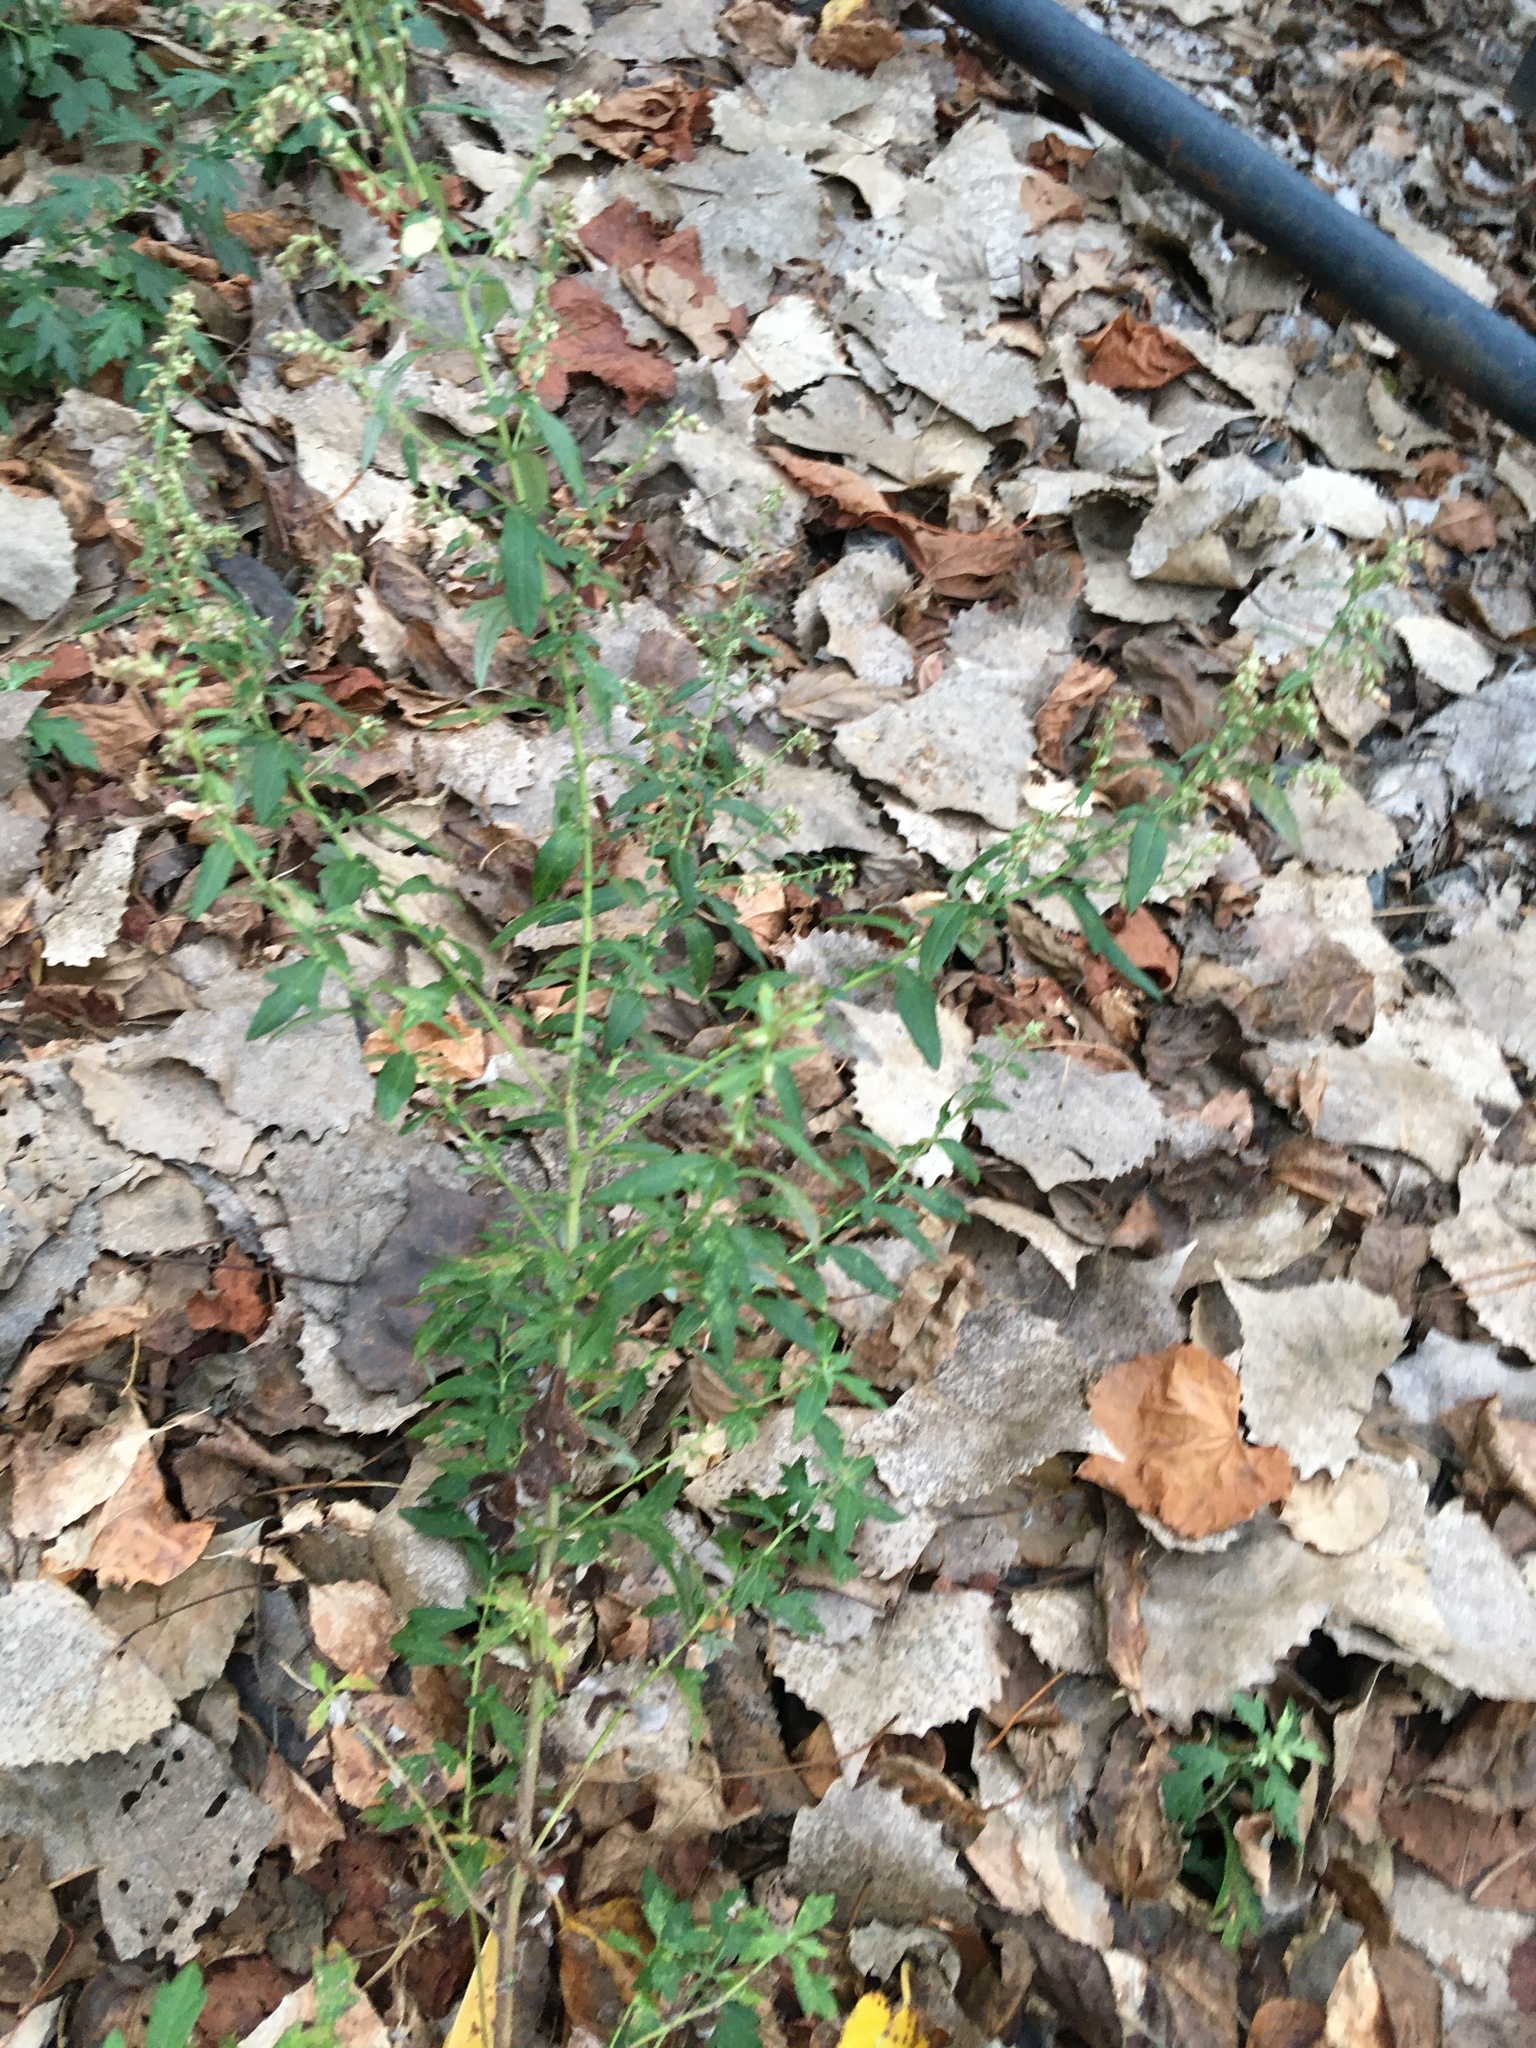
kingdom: Plantae
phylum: Tracheophyta
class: Magnoliopsida
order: Asterales
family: Asteraceae
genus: Artemisia
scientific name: Artemisia vulgaris
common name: Mugwort
